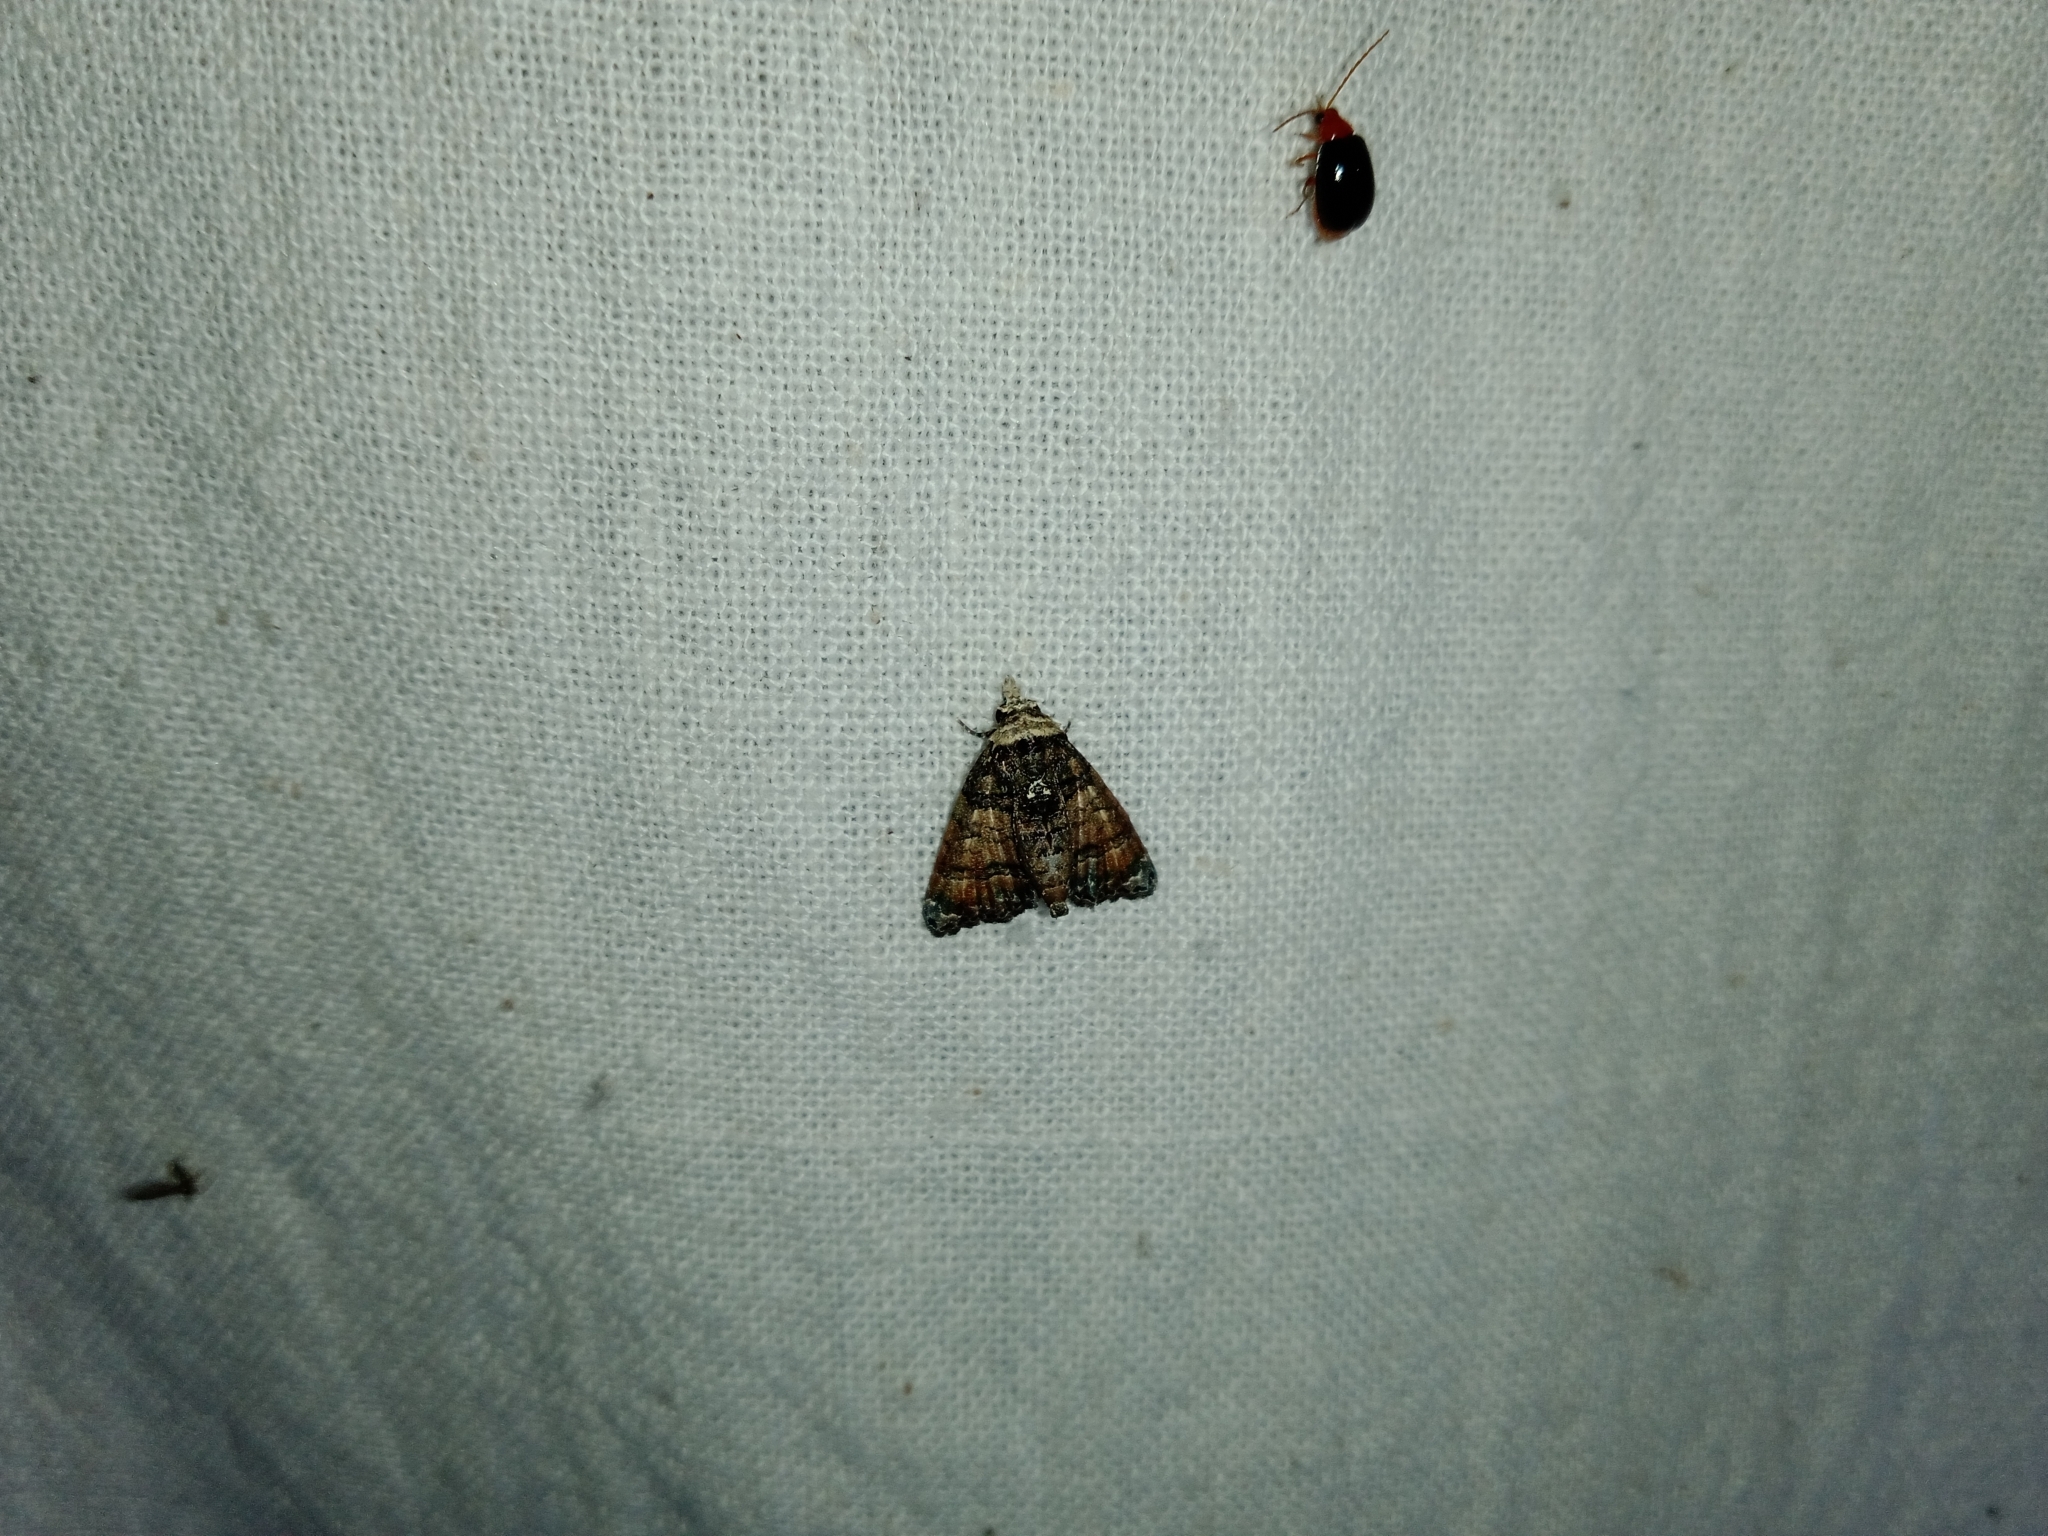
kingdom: Animalia
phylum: Arthropoda
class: Insecta
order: Lepidoptera
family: Euteliidae
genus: Chlumetia
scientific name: Chlumetia transversa
